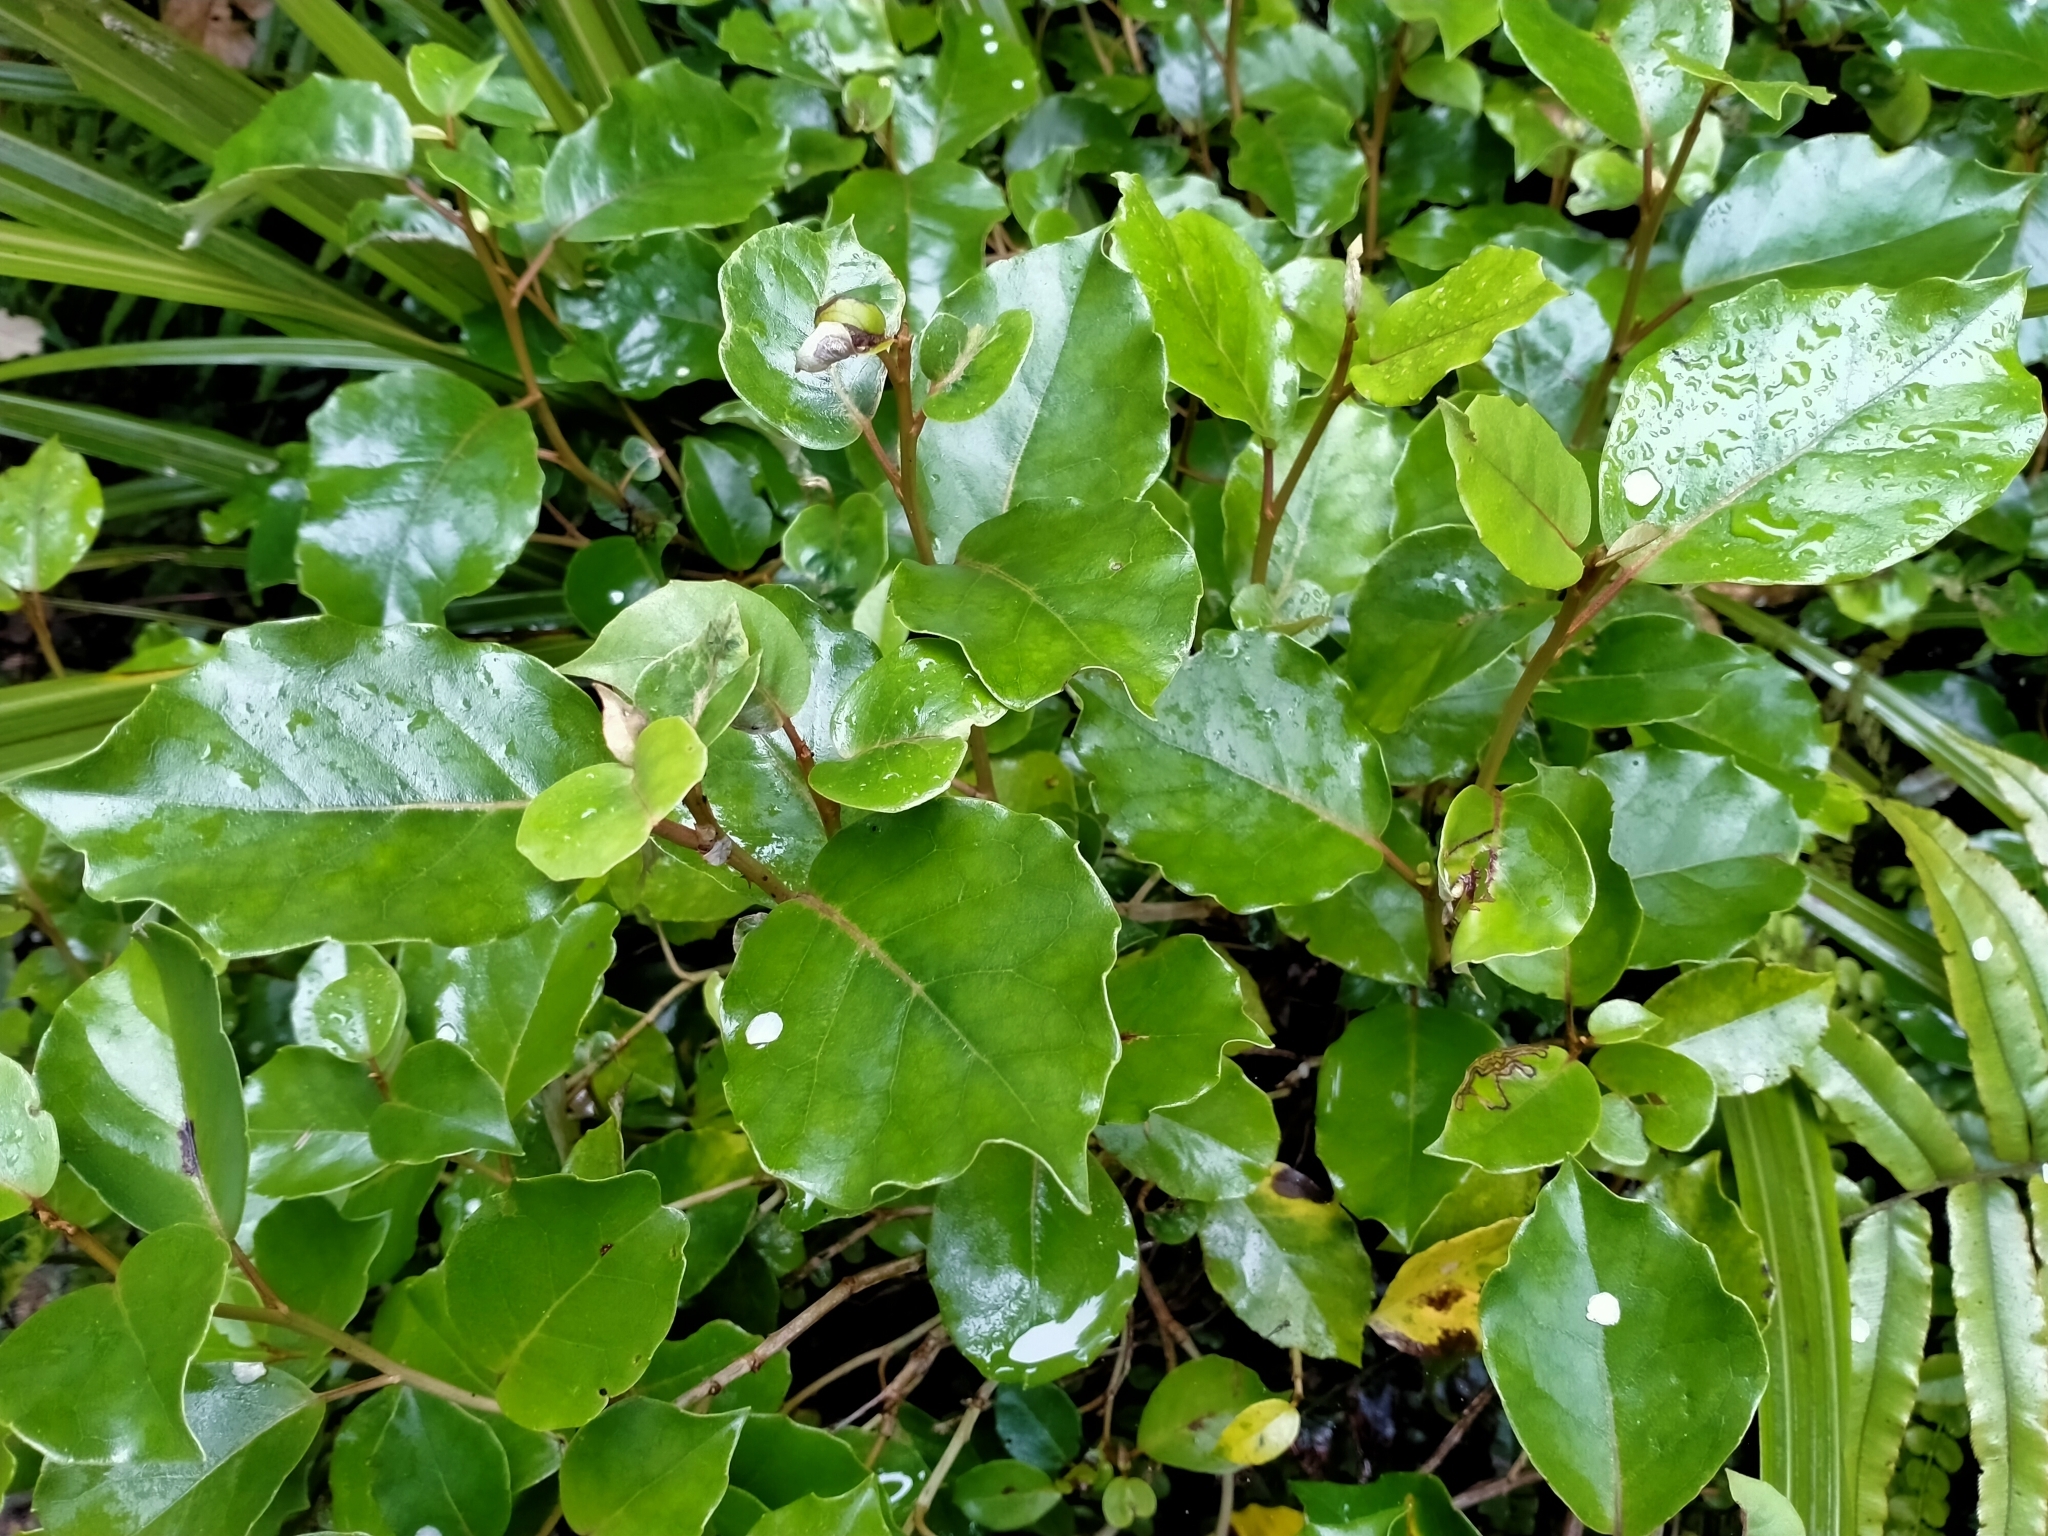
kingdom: Plantae
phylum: Tracheophyta
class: Magnoliopsida
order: Asterales
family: Asteraceae
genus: Olearia
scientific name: Olearia arborescens
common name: Glossy tree daisy
